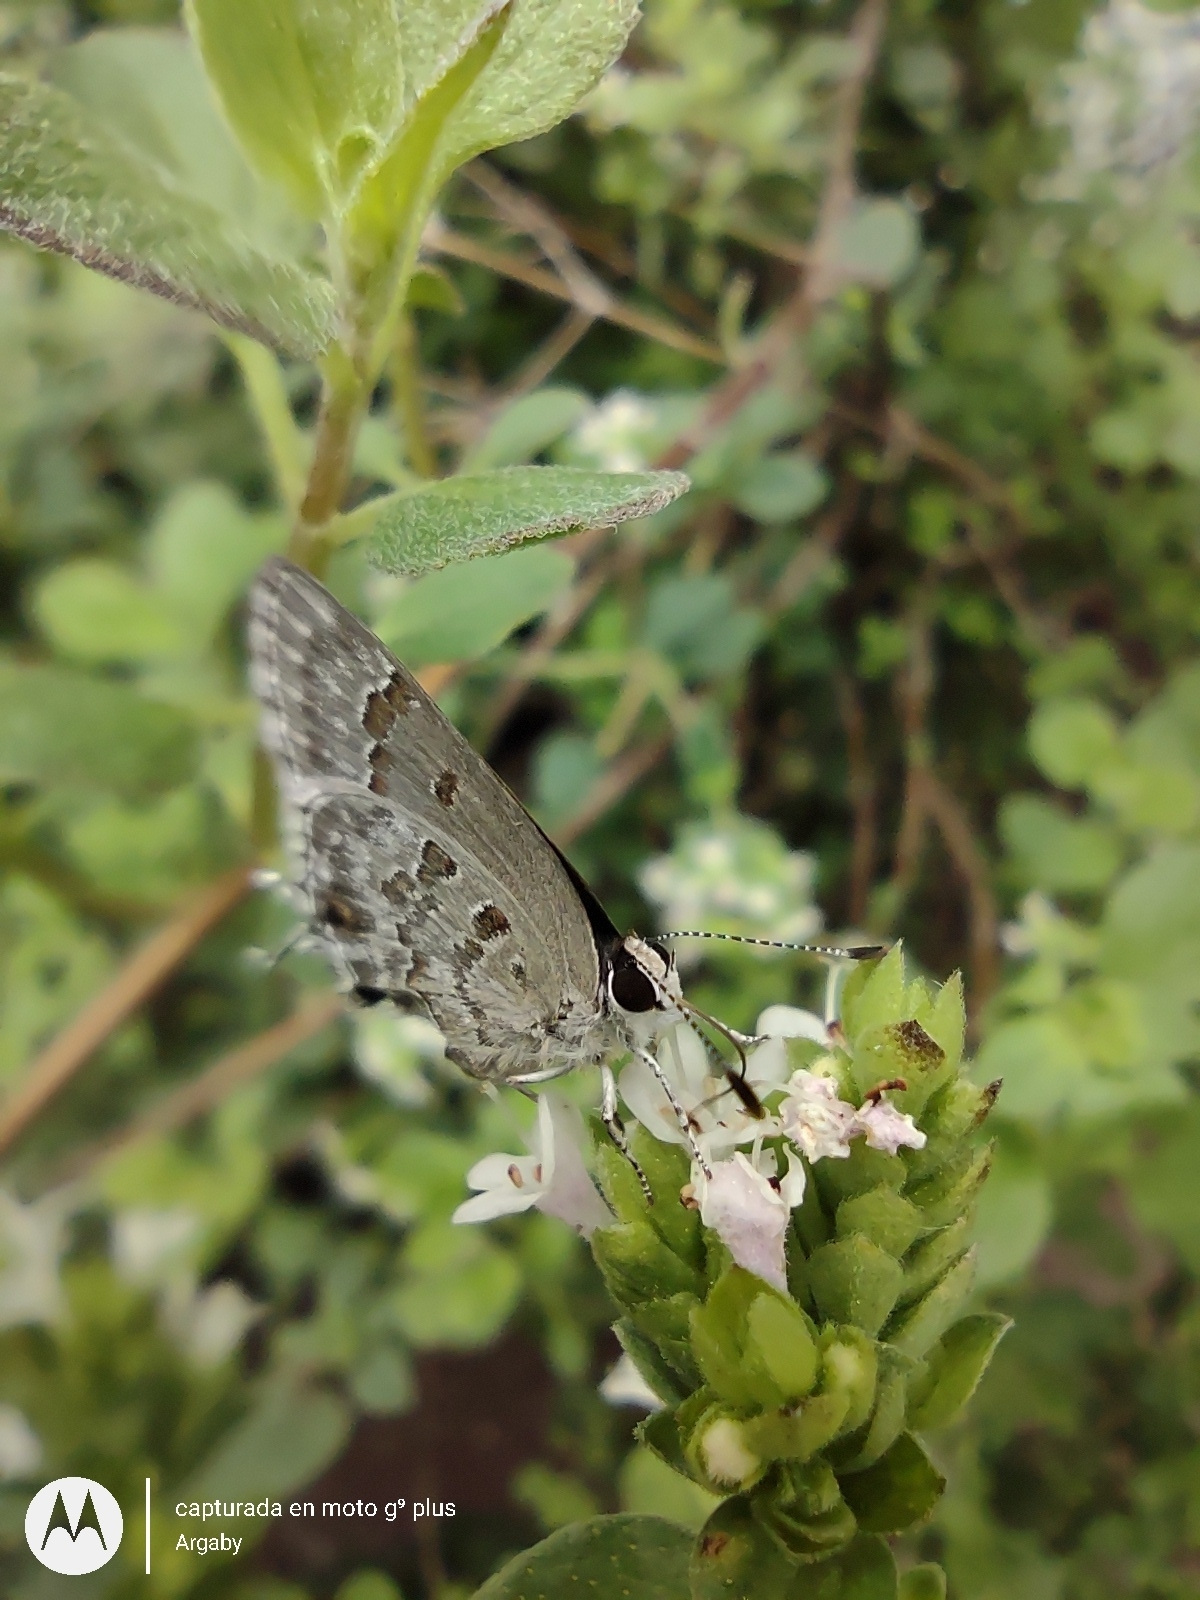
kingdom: Animalia
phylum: Arthropoda
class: Insecta
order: Lepidoptera
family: Lycaenidae
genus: Strymon
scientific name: Strymon lucena
